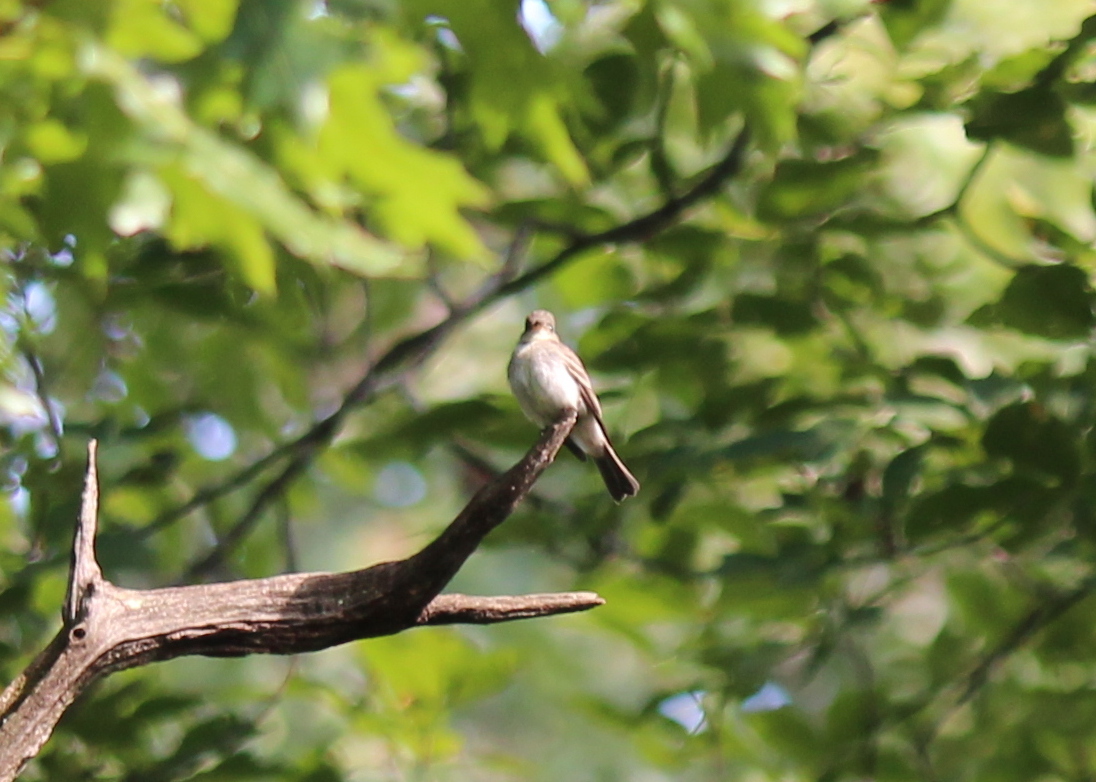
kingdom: Animalia
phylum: Chordata
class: Aves
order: Passeriformes
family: Tyrannidae
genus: Contopus
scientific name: Contopus virens
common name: Eastern wood-pewee
